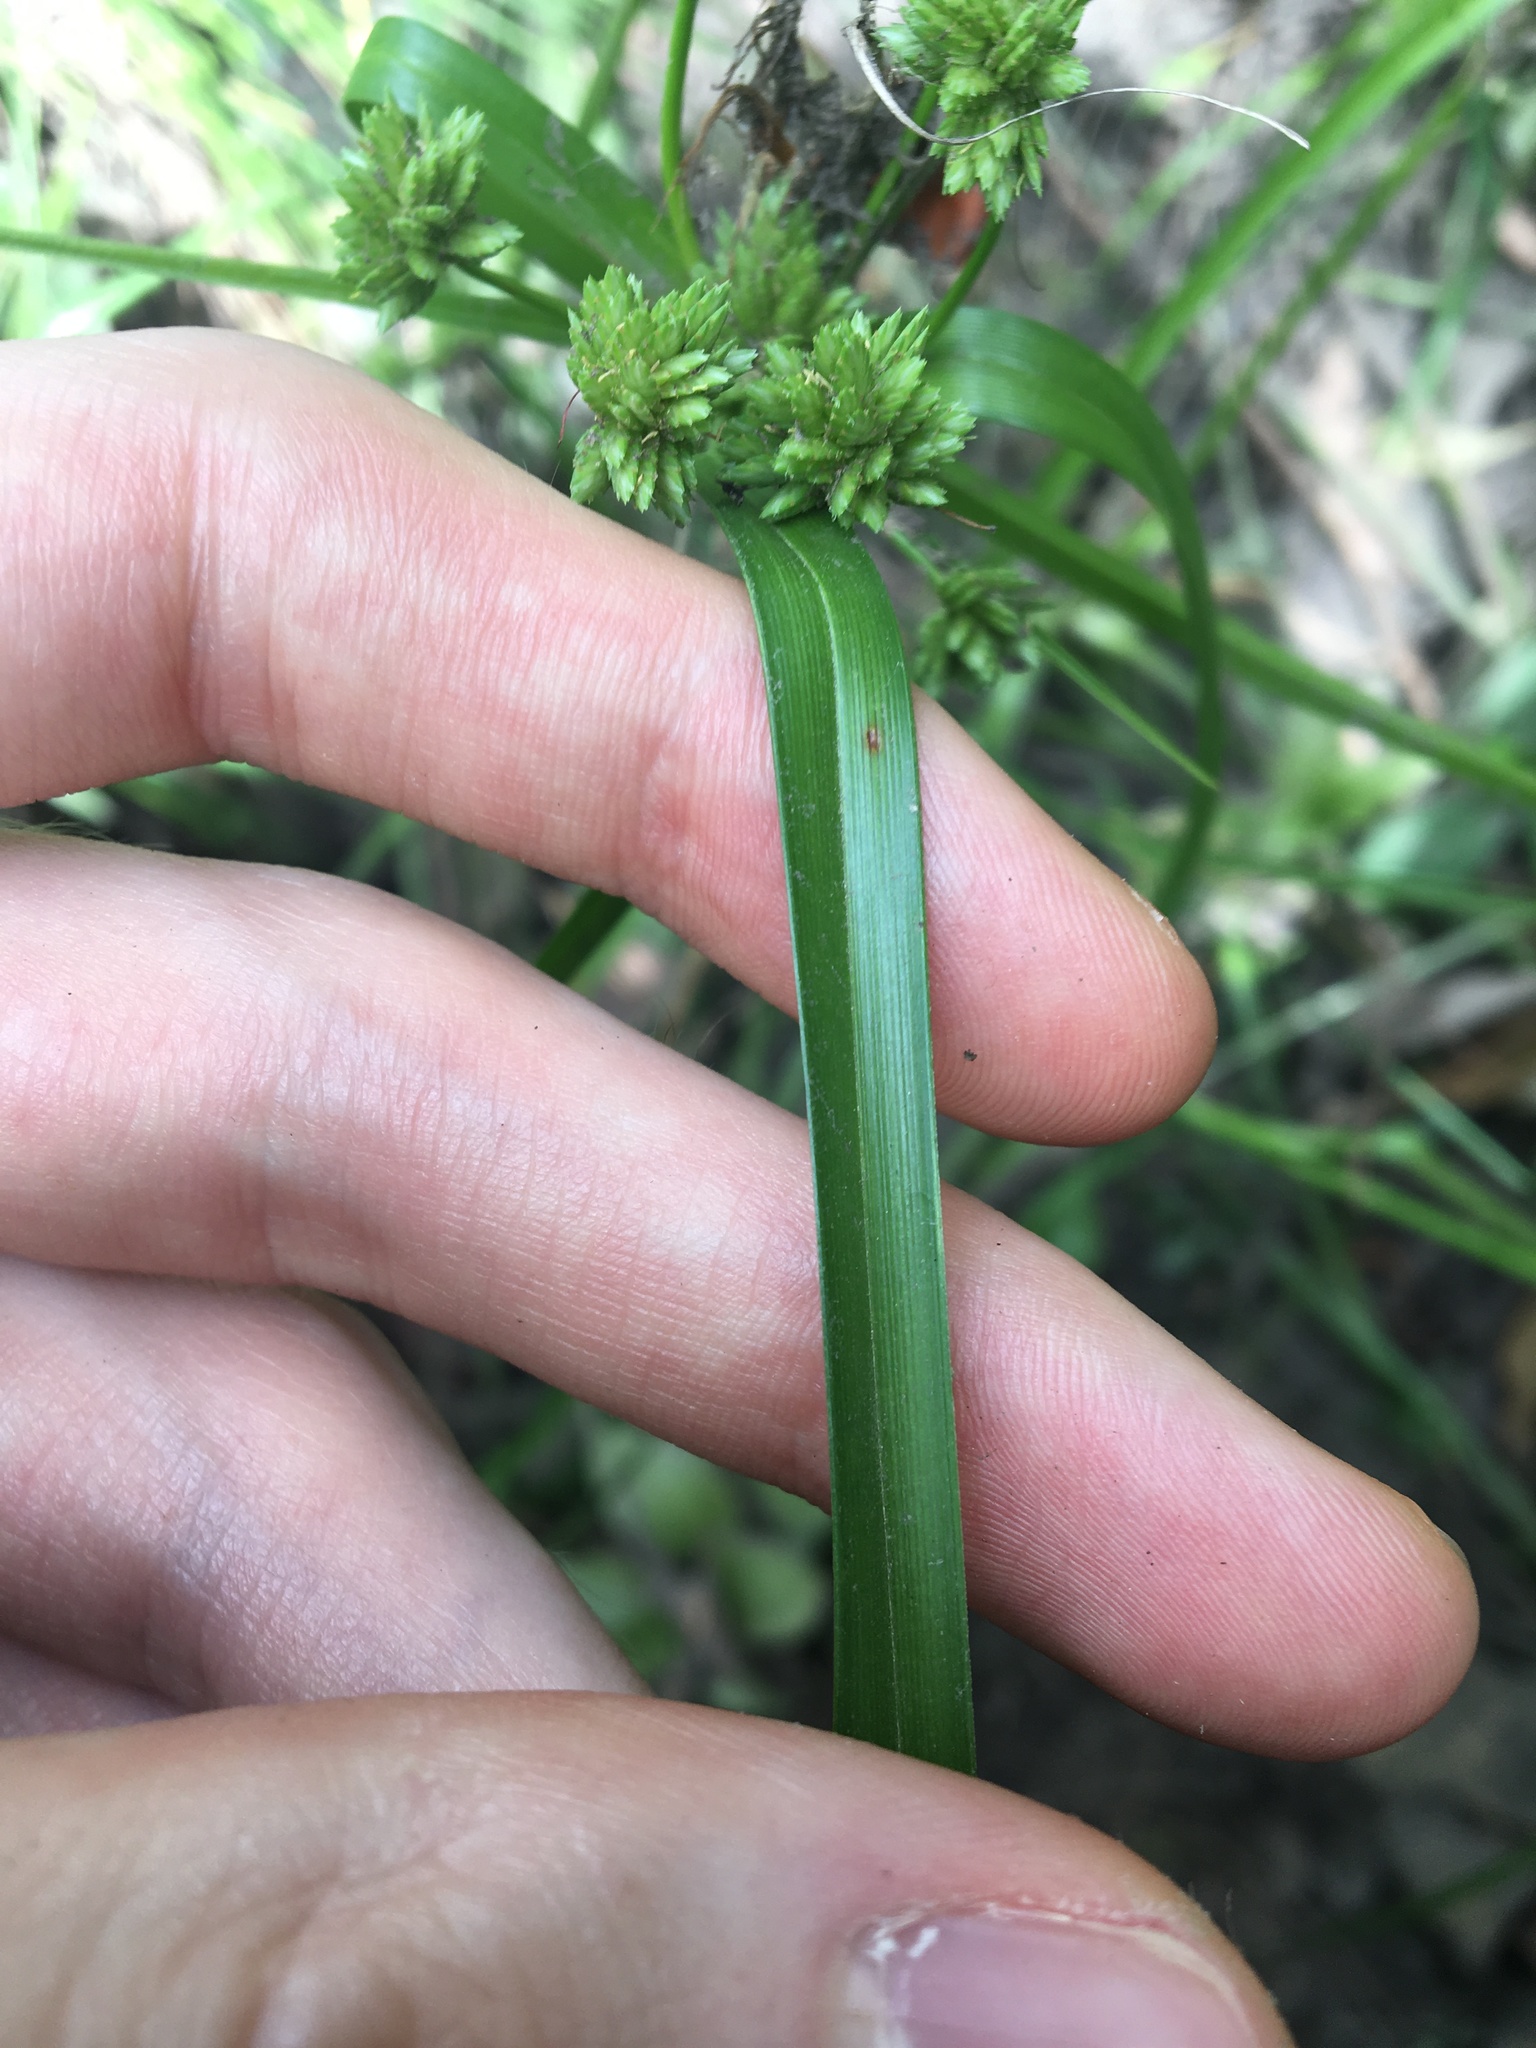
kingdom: Plantae
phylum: Tracheophyta
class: Liliopsida
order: Poales
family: Cyperaceae
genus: Cyperus
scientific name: Cyperus eragrostis
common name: Tall flatsedge
